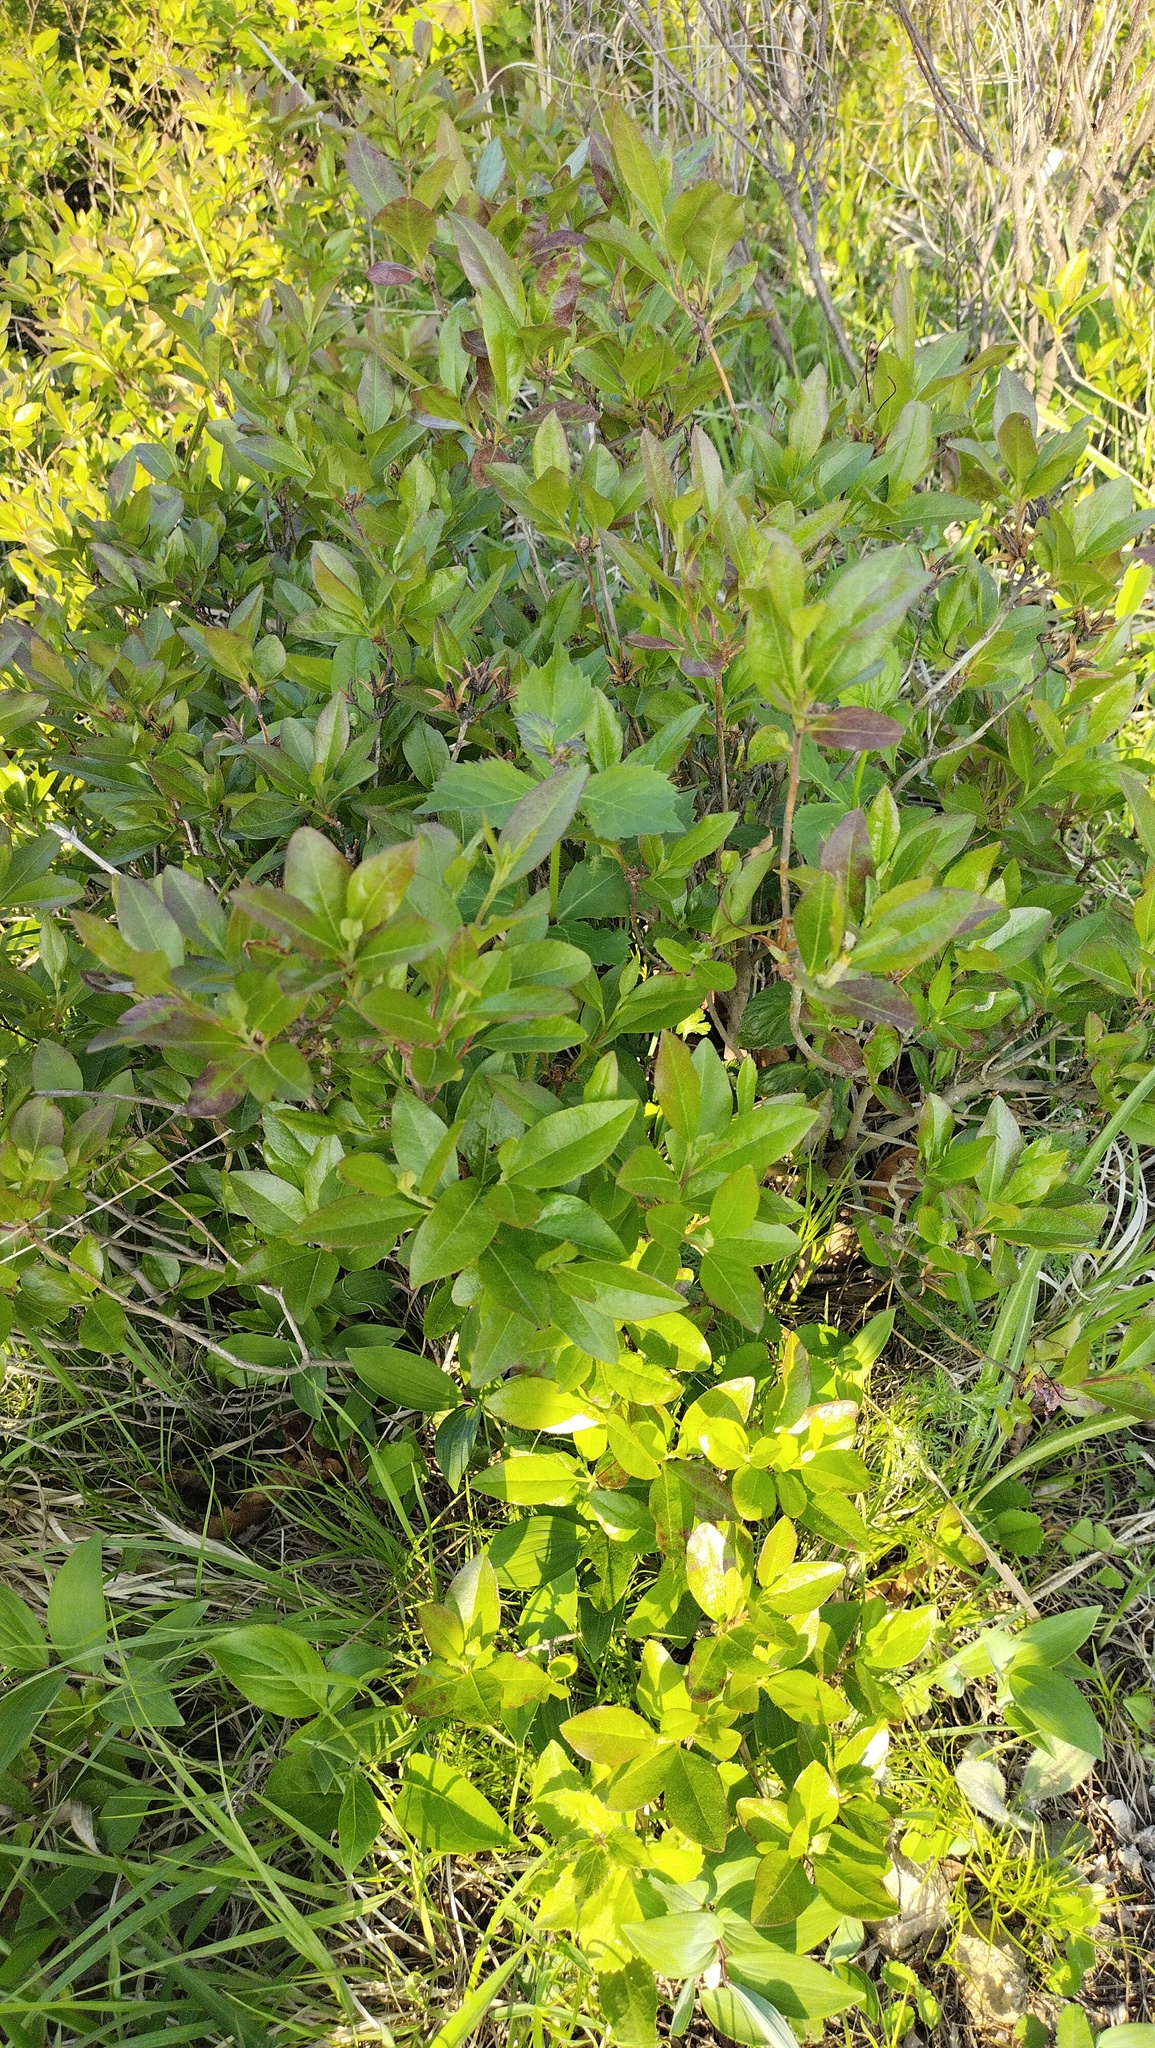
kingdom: Plantae
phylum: Tracheophyta
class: Magnoliopsida
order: Ericales
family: Ericaceae
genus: Rhododendron
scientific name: Rhododendron mucronulatum
